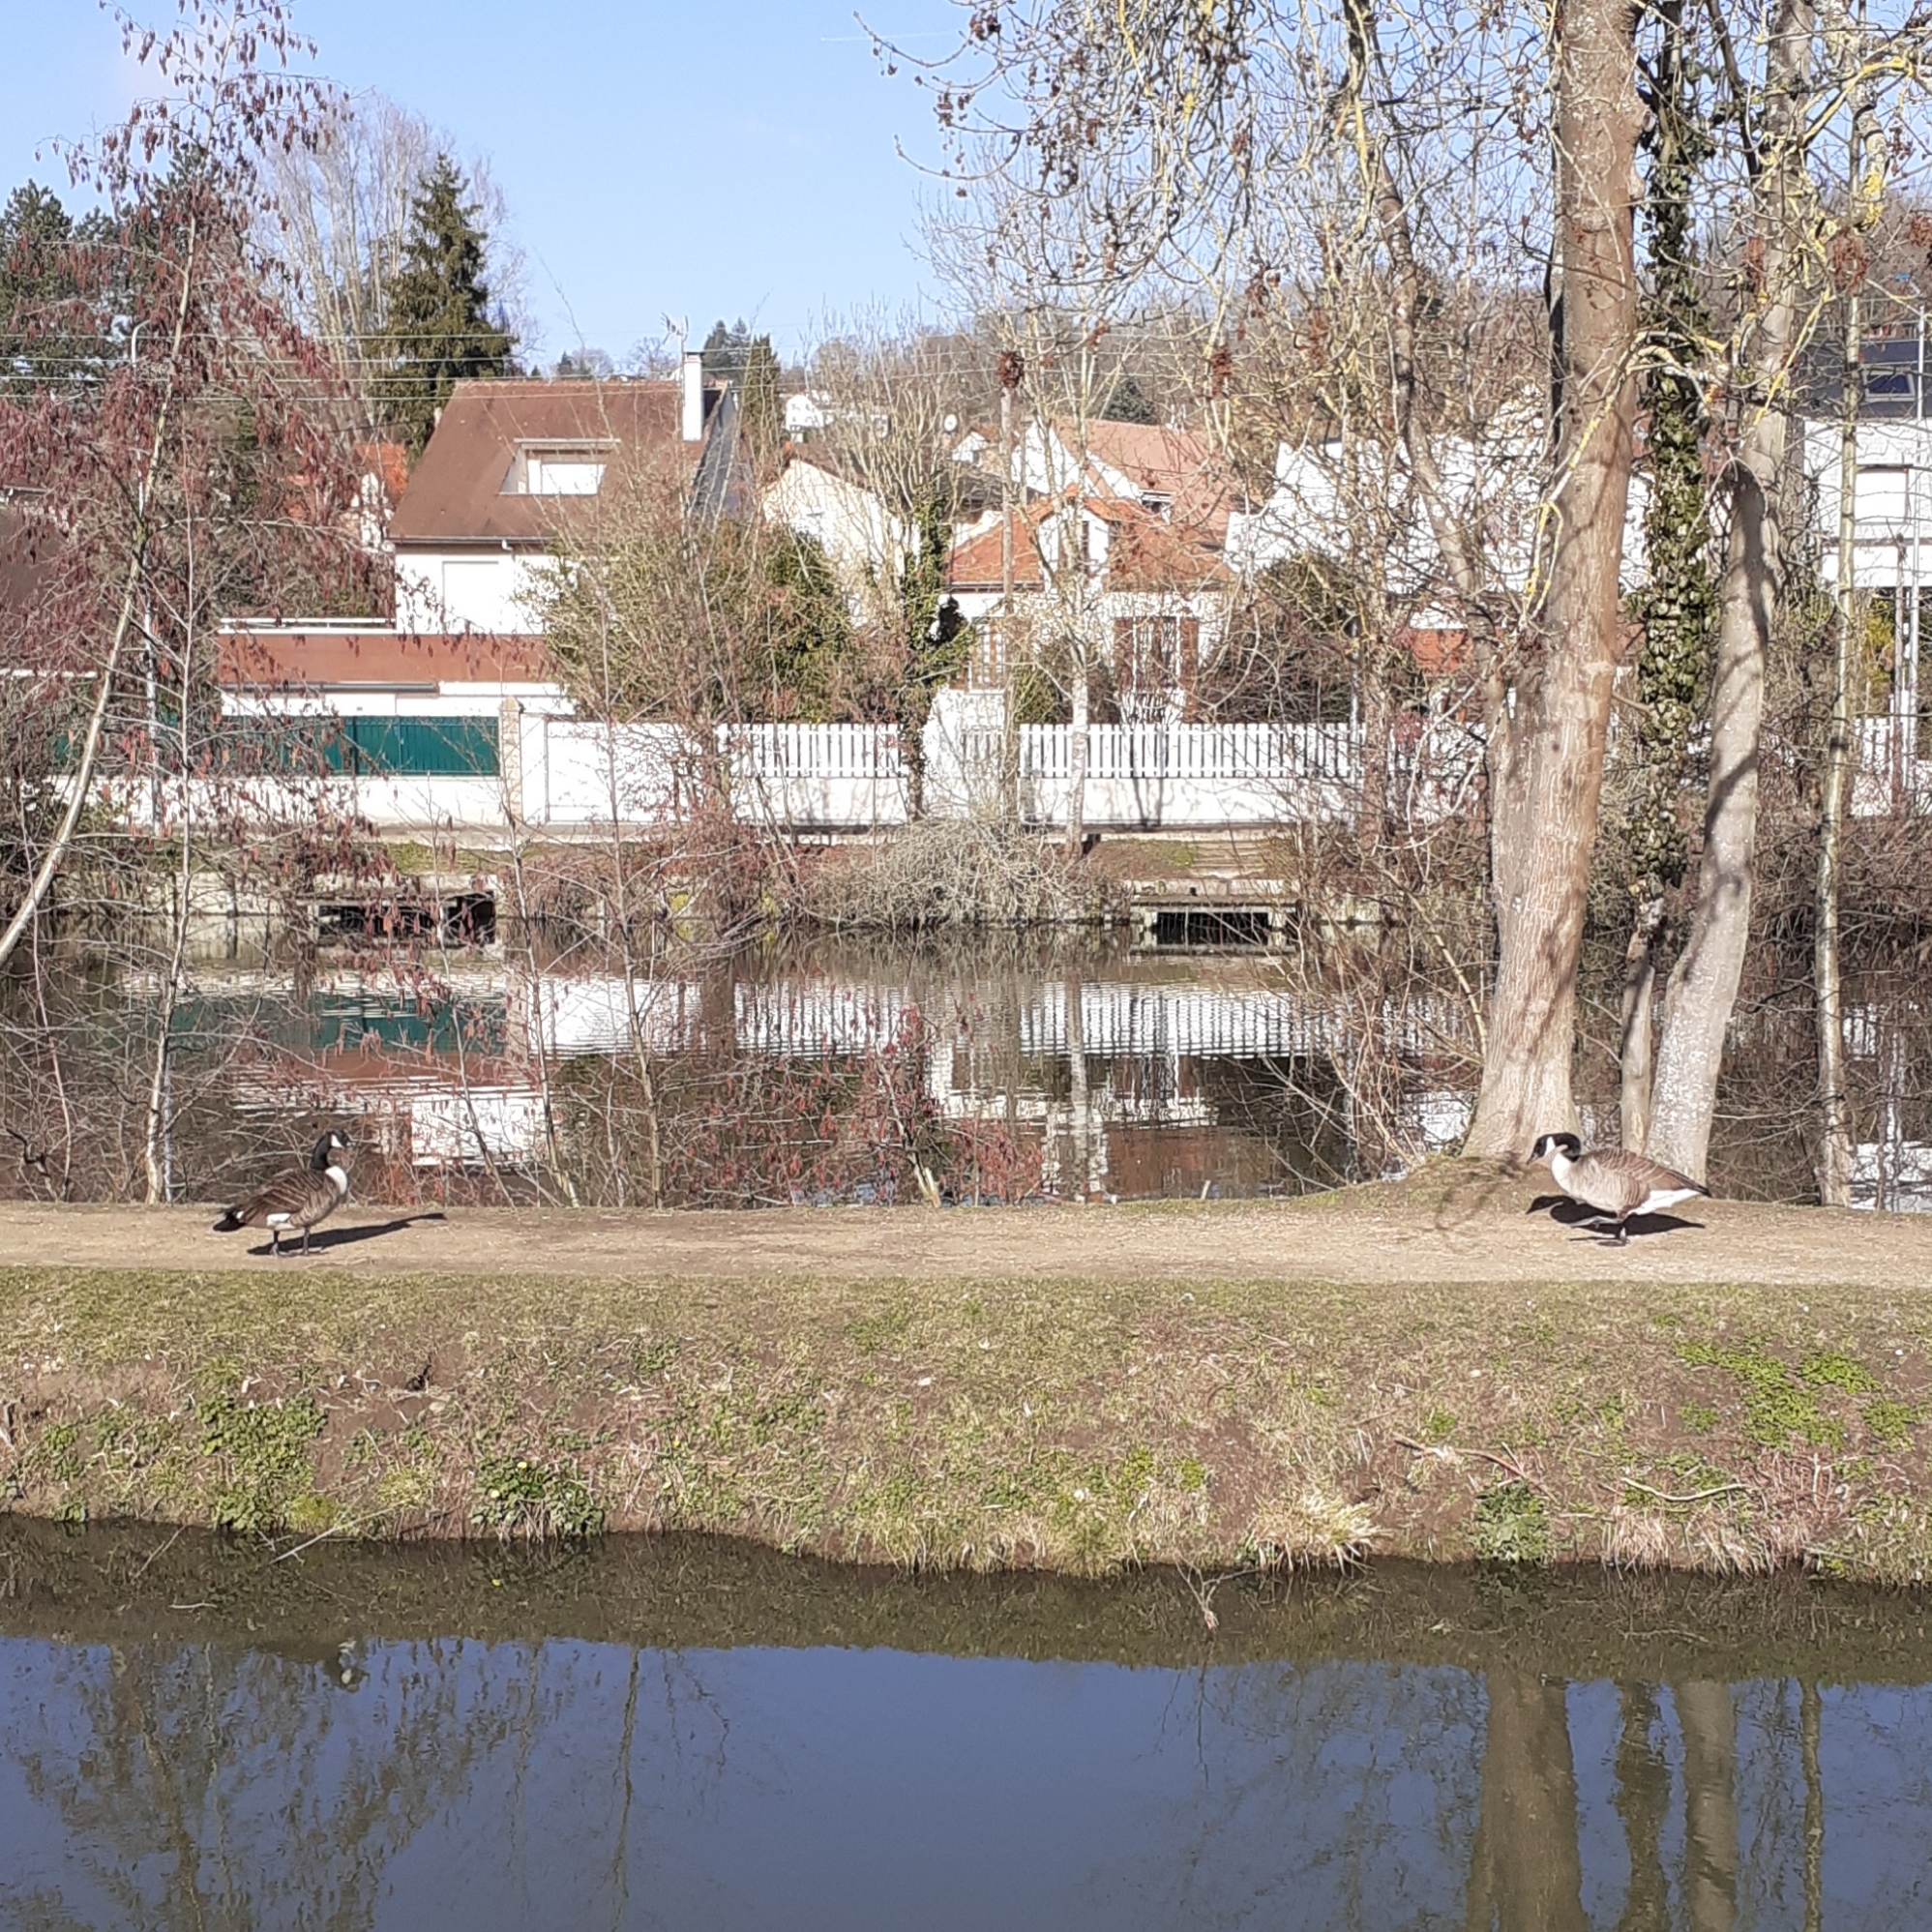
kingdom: Animalia
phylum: Chordata
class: Aves
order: Anseriformes
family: Anatidae
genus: Branta
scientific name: Branta canadensis
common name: Canada goose
